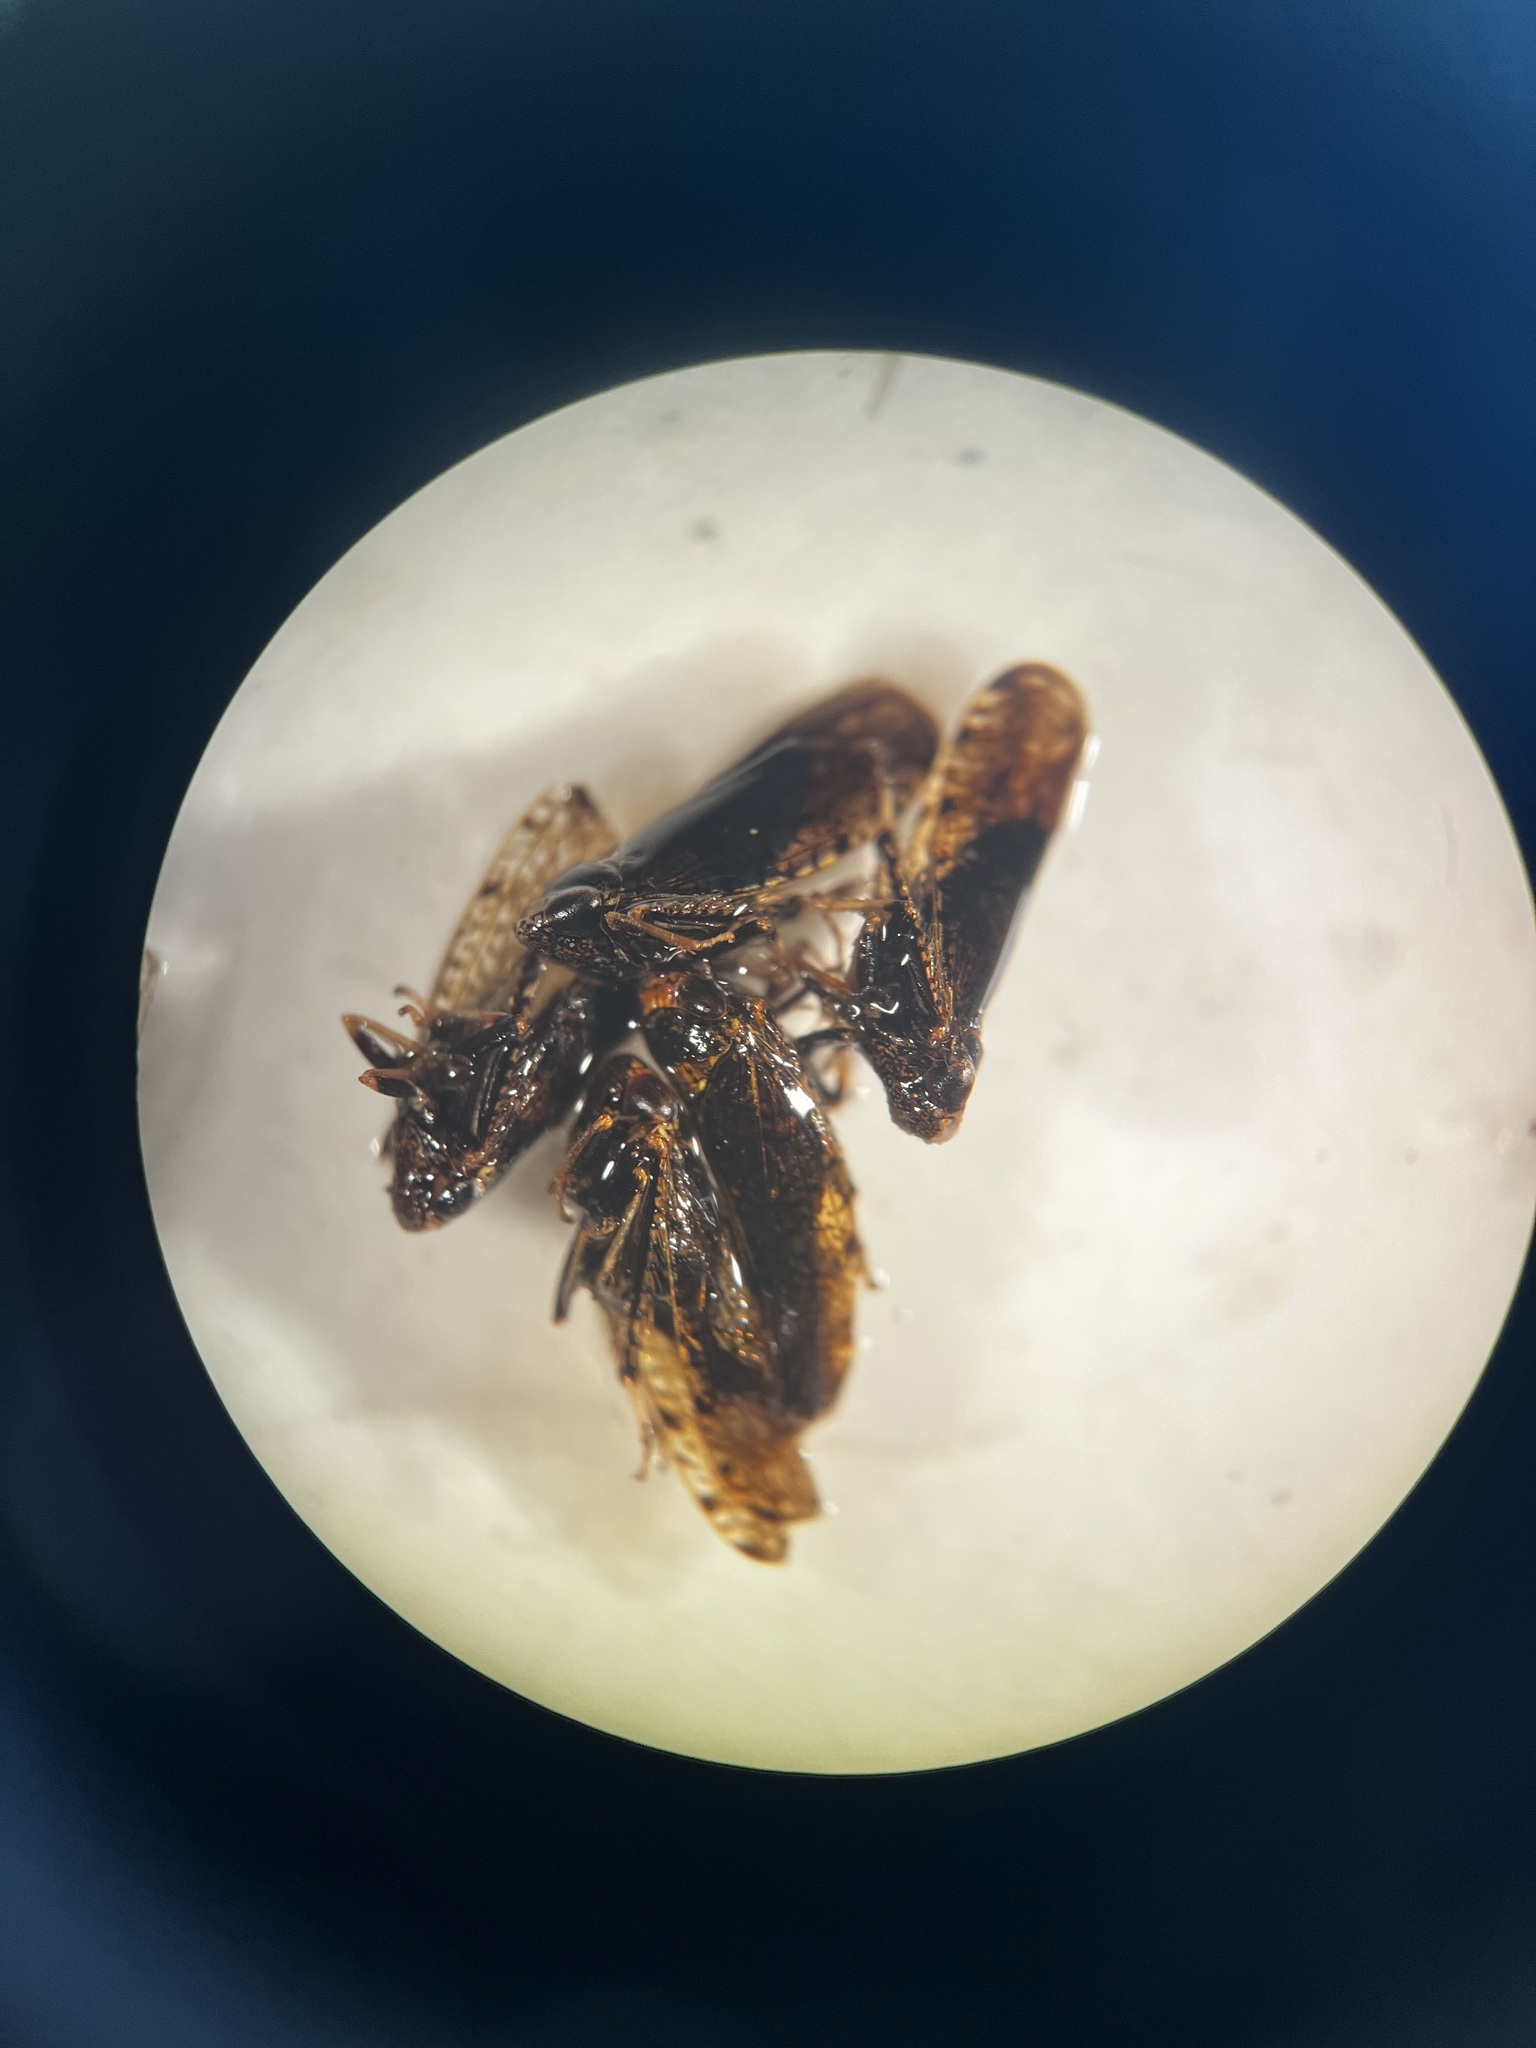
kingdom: Animalia
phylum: Arthropoda
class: Insecta
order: Hemiptera
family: Cicadellidae
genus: Orientus
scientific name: Orientus ishidae
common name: Japanese leafhopper
